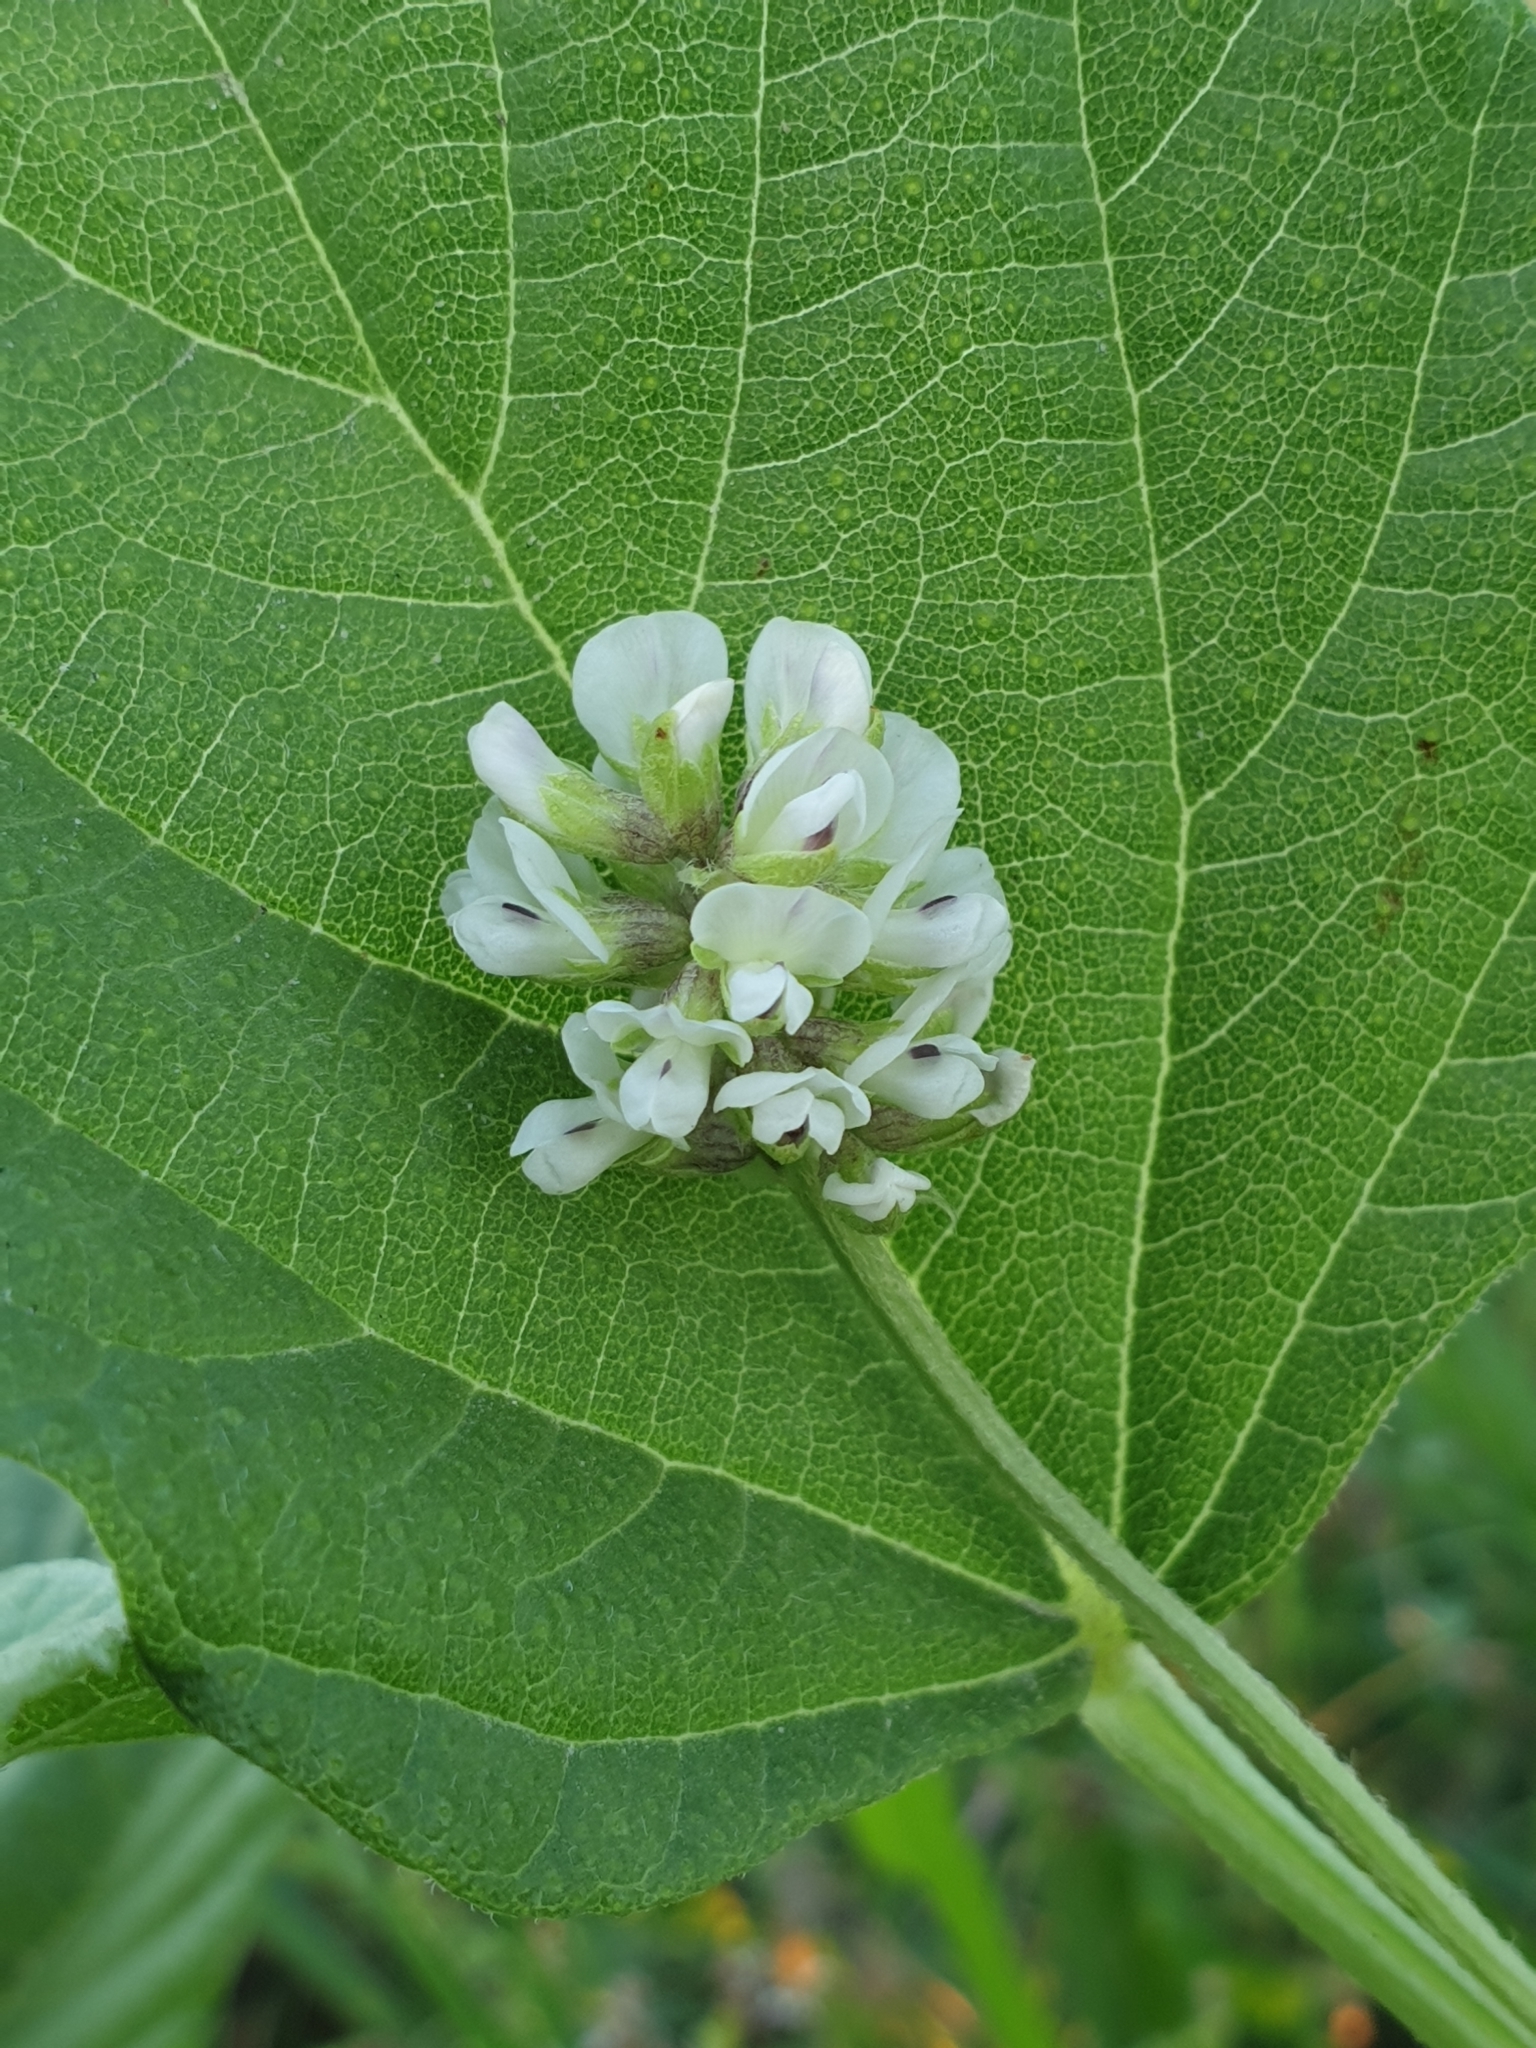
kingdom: Plantae
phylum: Tracheophyta
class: Magnoliopsida
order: Fabales
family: Fabaceae
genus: Cullen
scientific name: Cullen corylifolium
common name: Malaysian scurfpea
